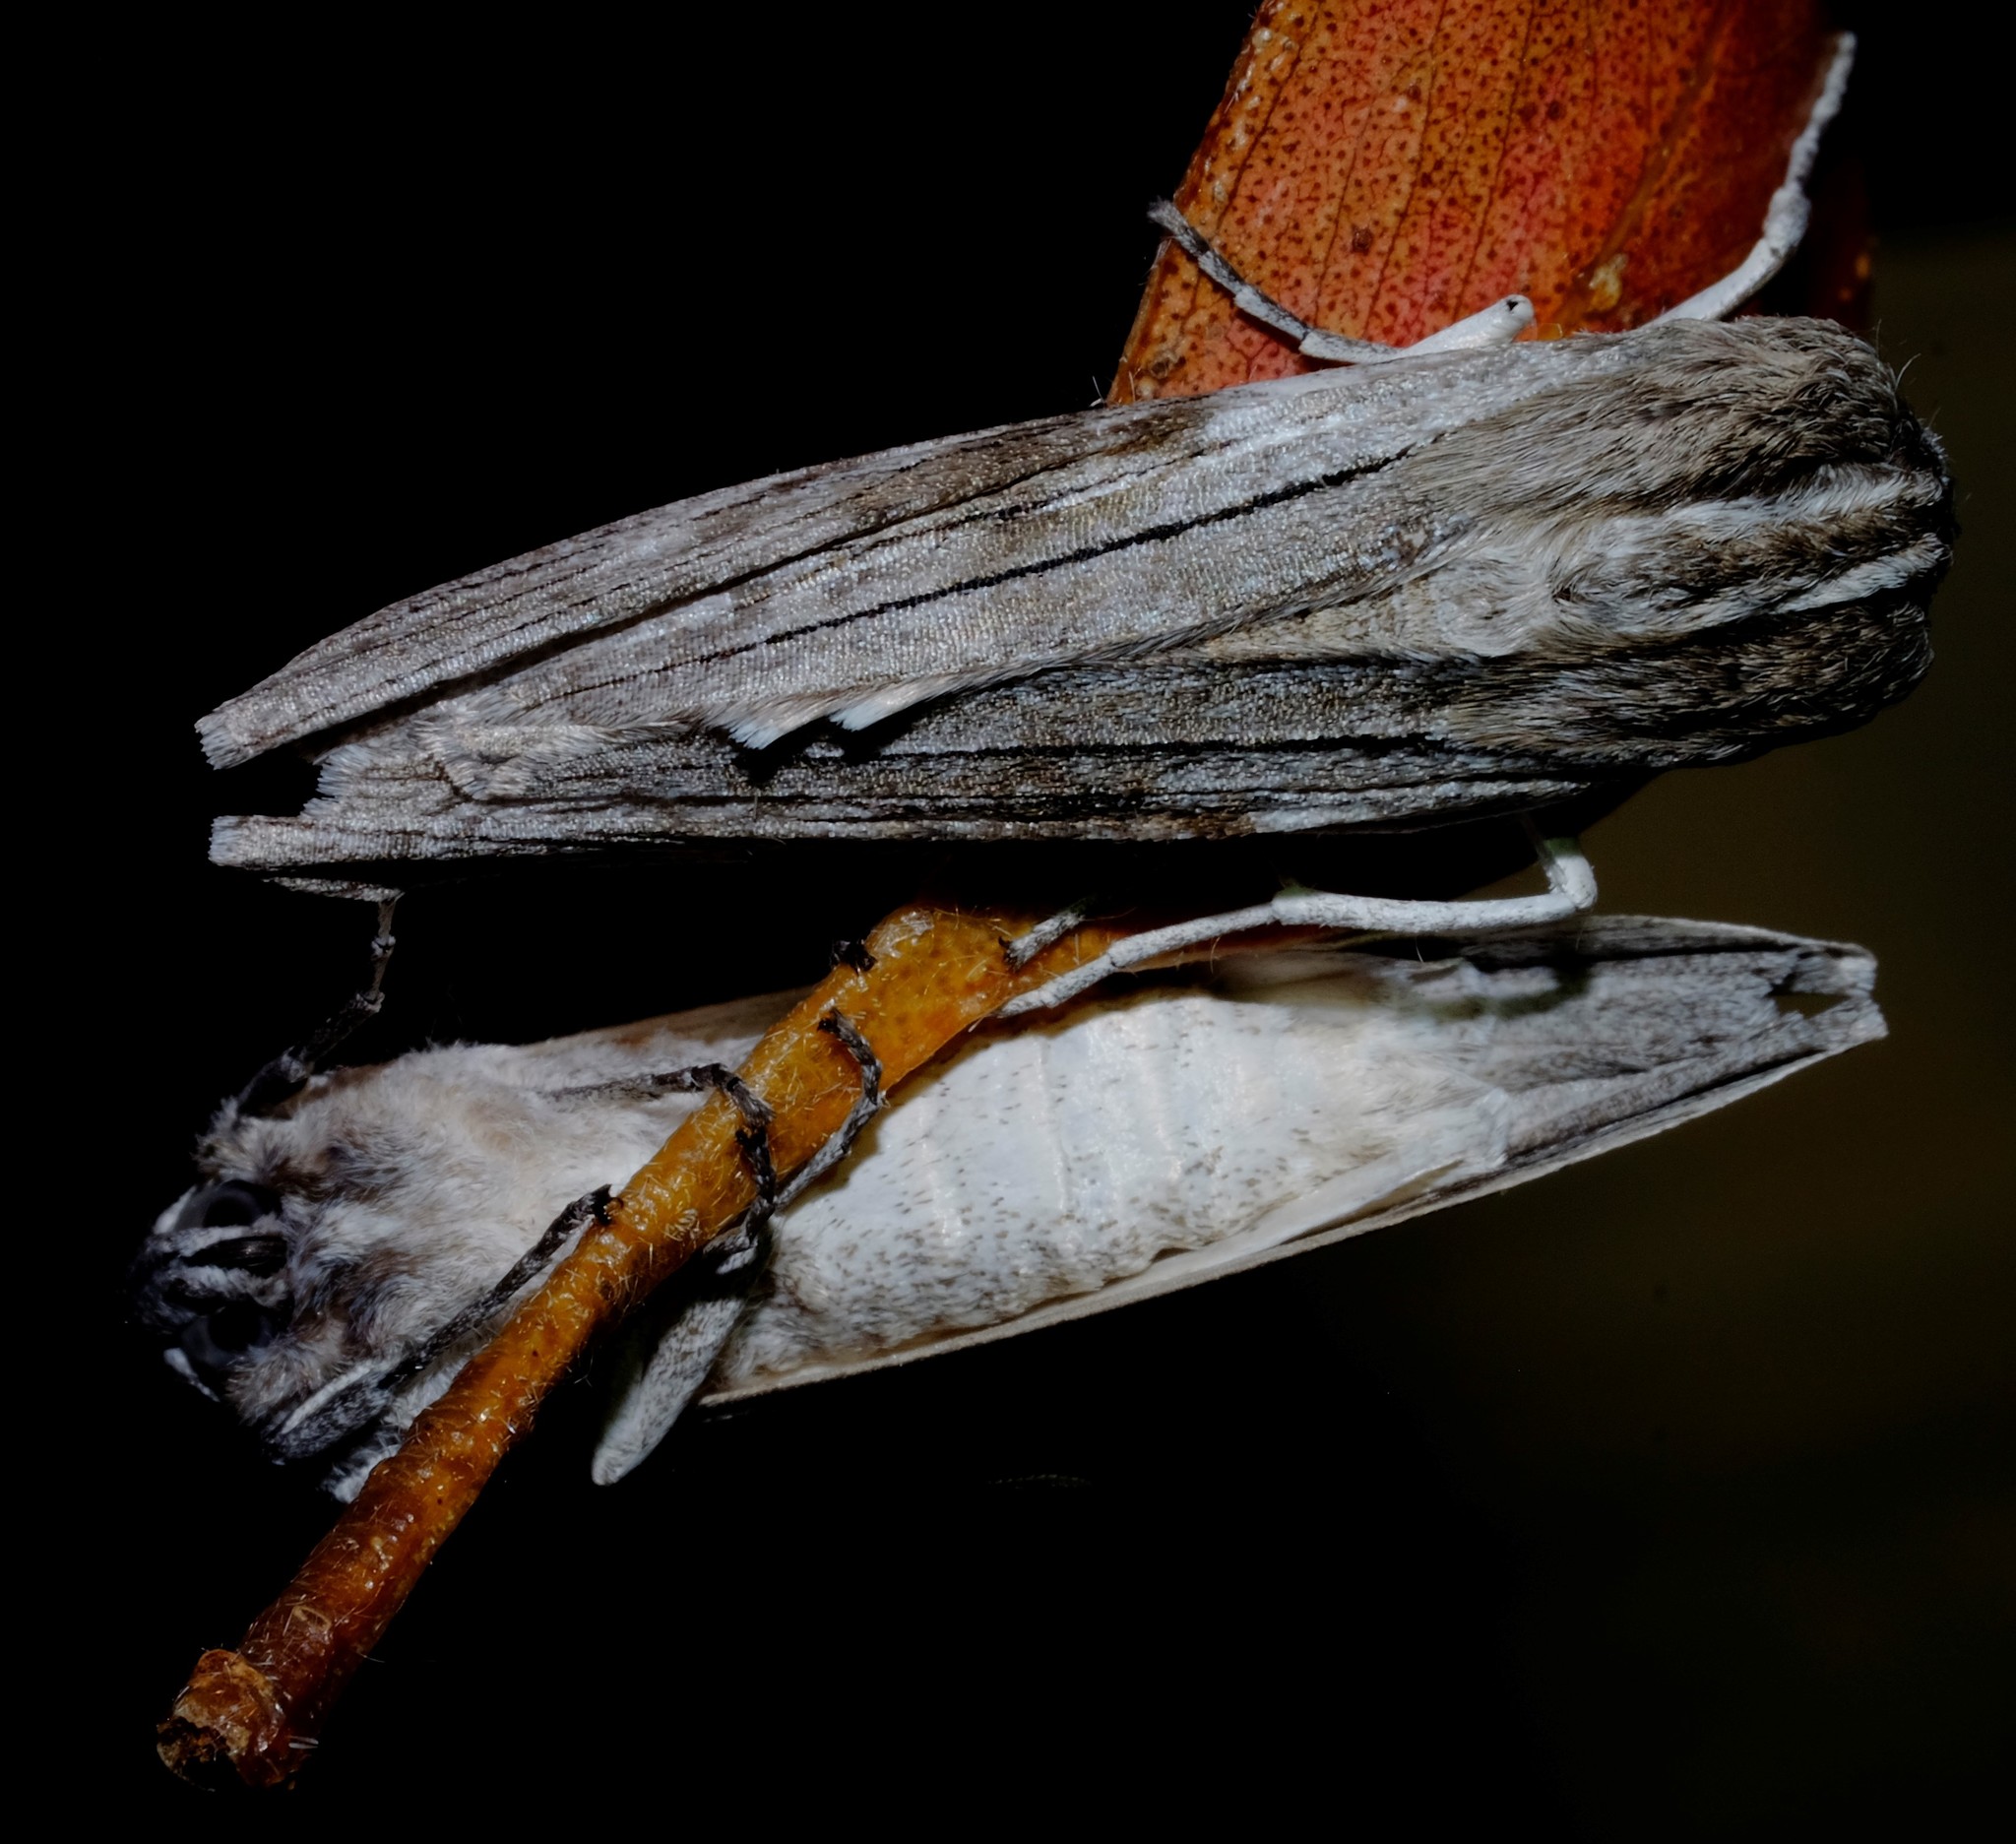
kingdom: Animalia
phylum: Arthropoda
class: Insecta
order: Lepidoptera
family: Geometridae
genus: Capusa
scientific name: Capusa cuculloides
